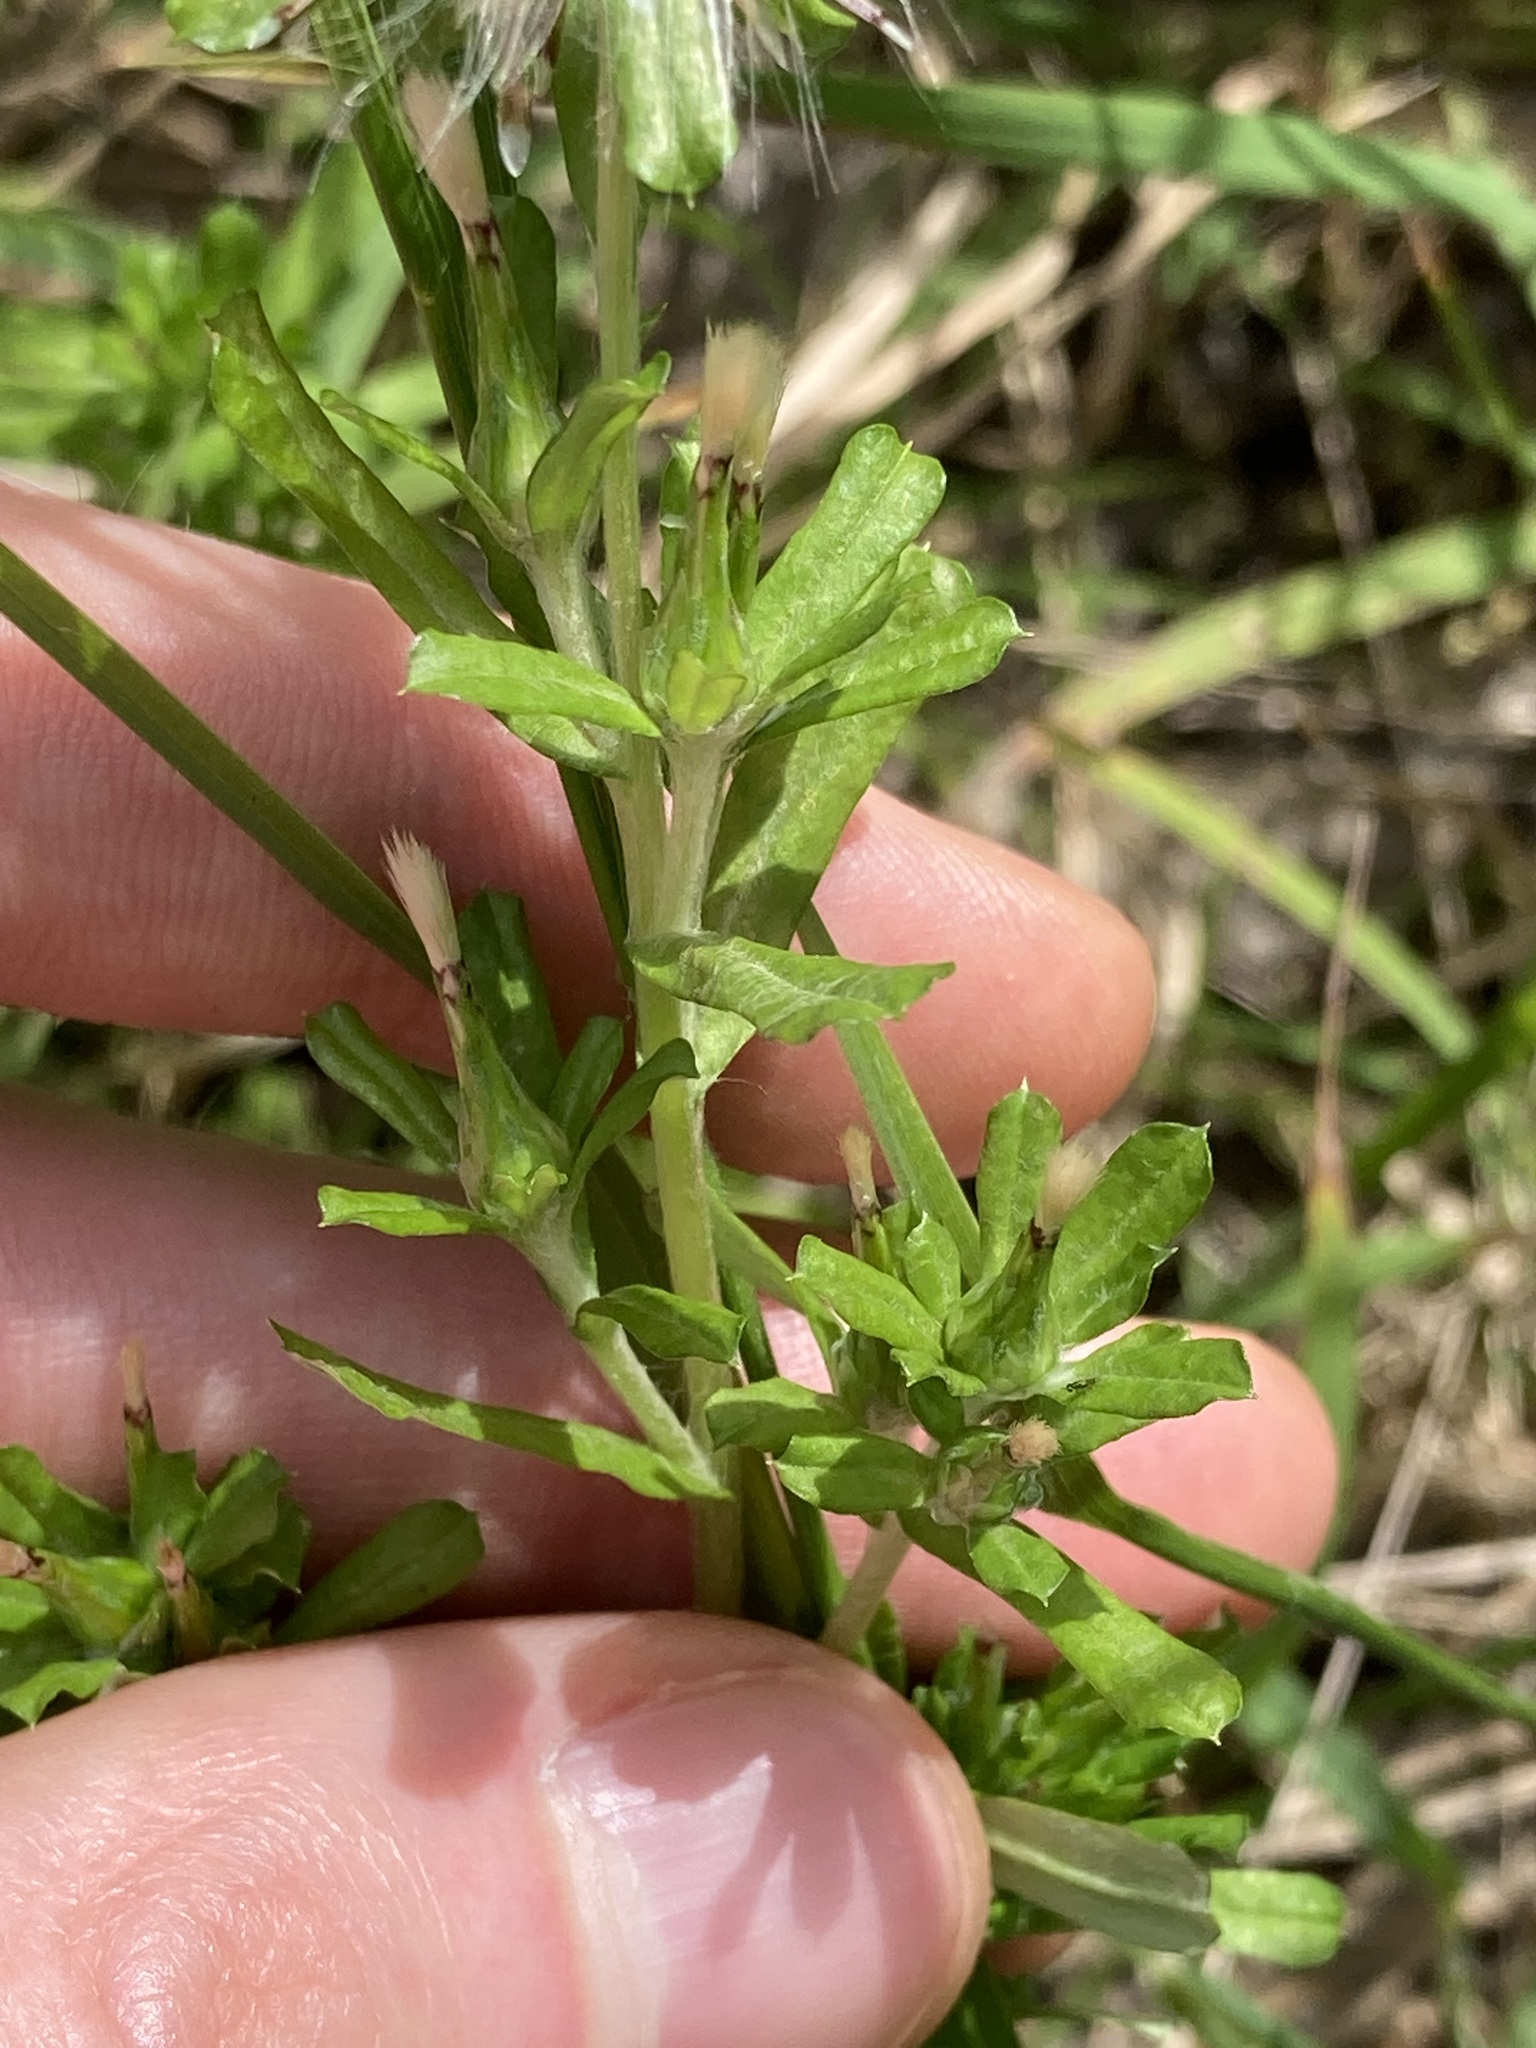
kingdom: Plantae
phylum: Tracheophyta
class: Magnoliopsida
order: Asterales
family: Asteraceae
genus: Facelis
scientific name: Facelis retusa
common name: Annual trampweed
